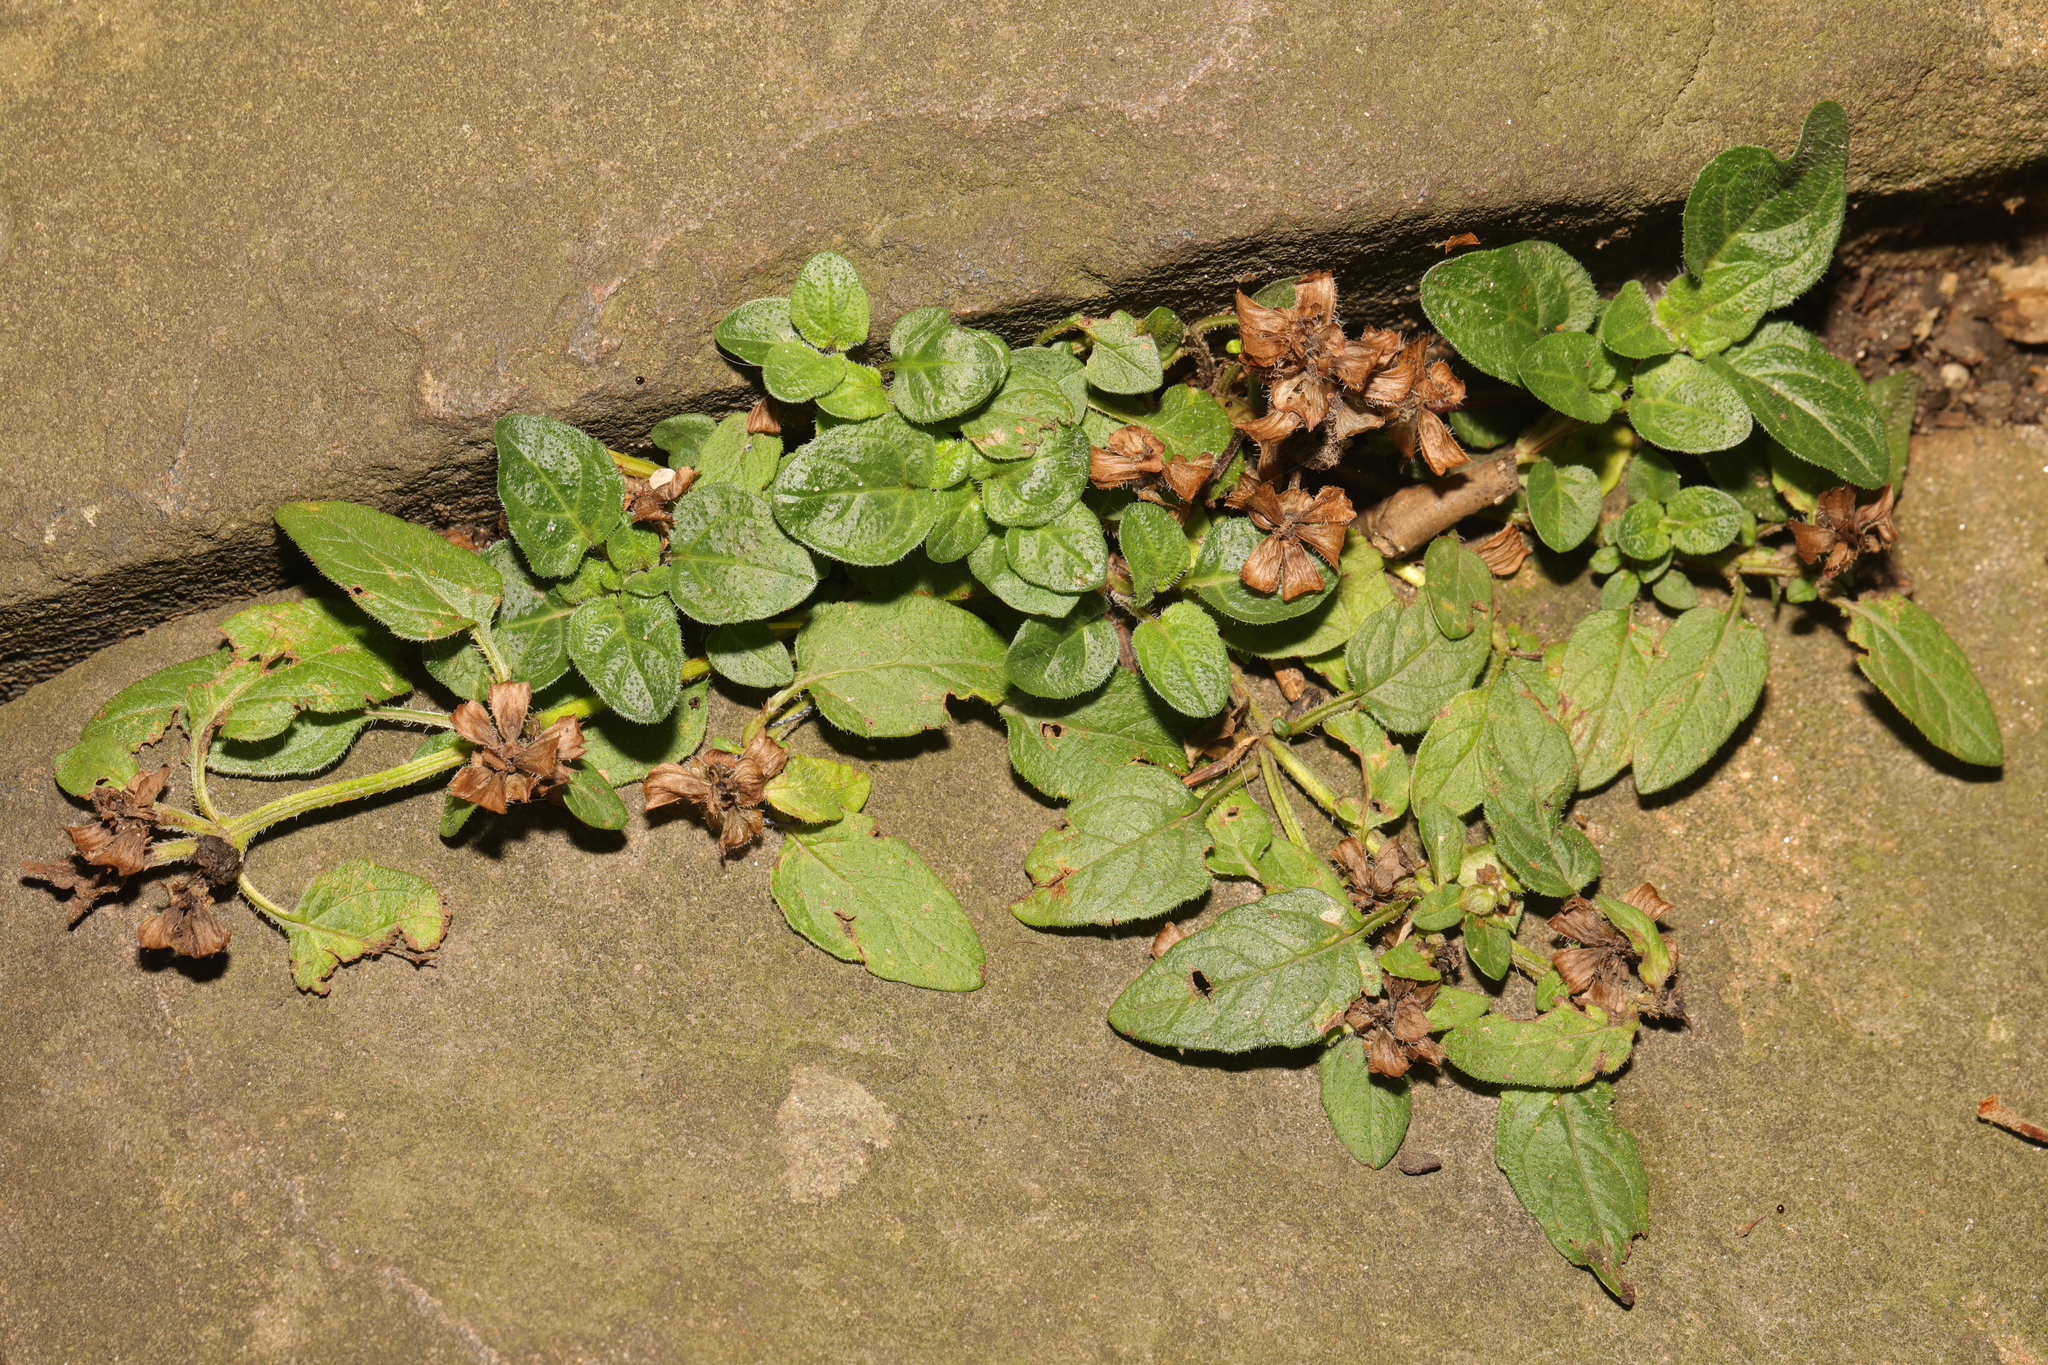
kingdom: Plantae
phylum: Tracheophyta
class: Magnoliopsida
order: Lamiales
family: Lamiaceae
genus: Prunella
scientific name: Prunella vulgaris
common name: Heal-all
